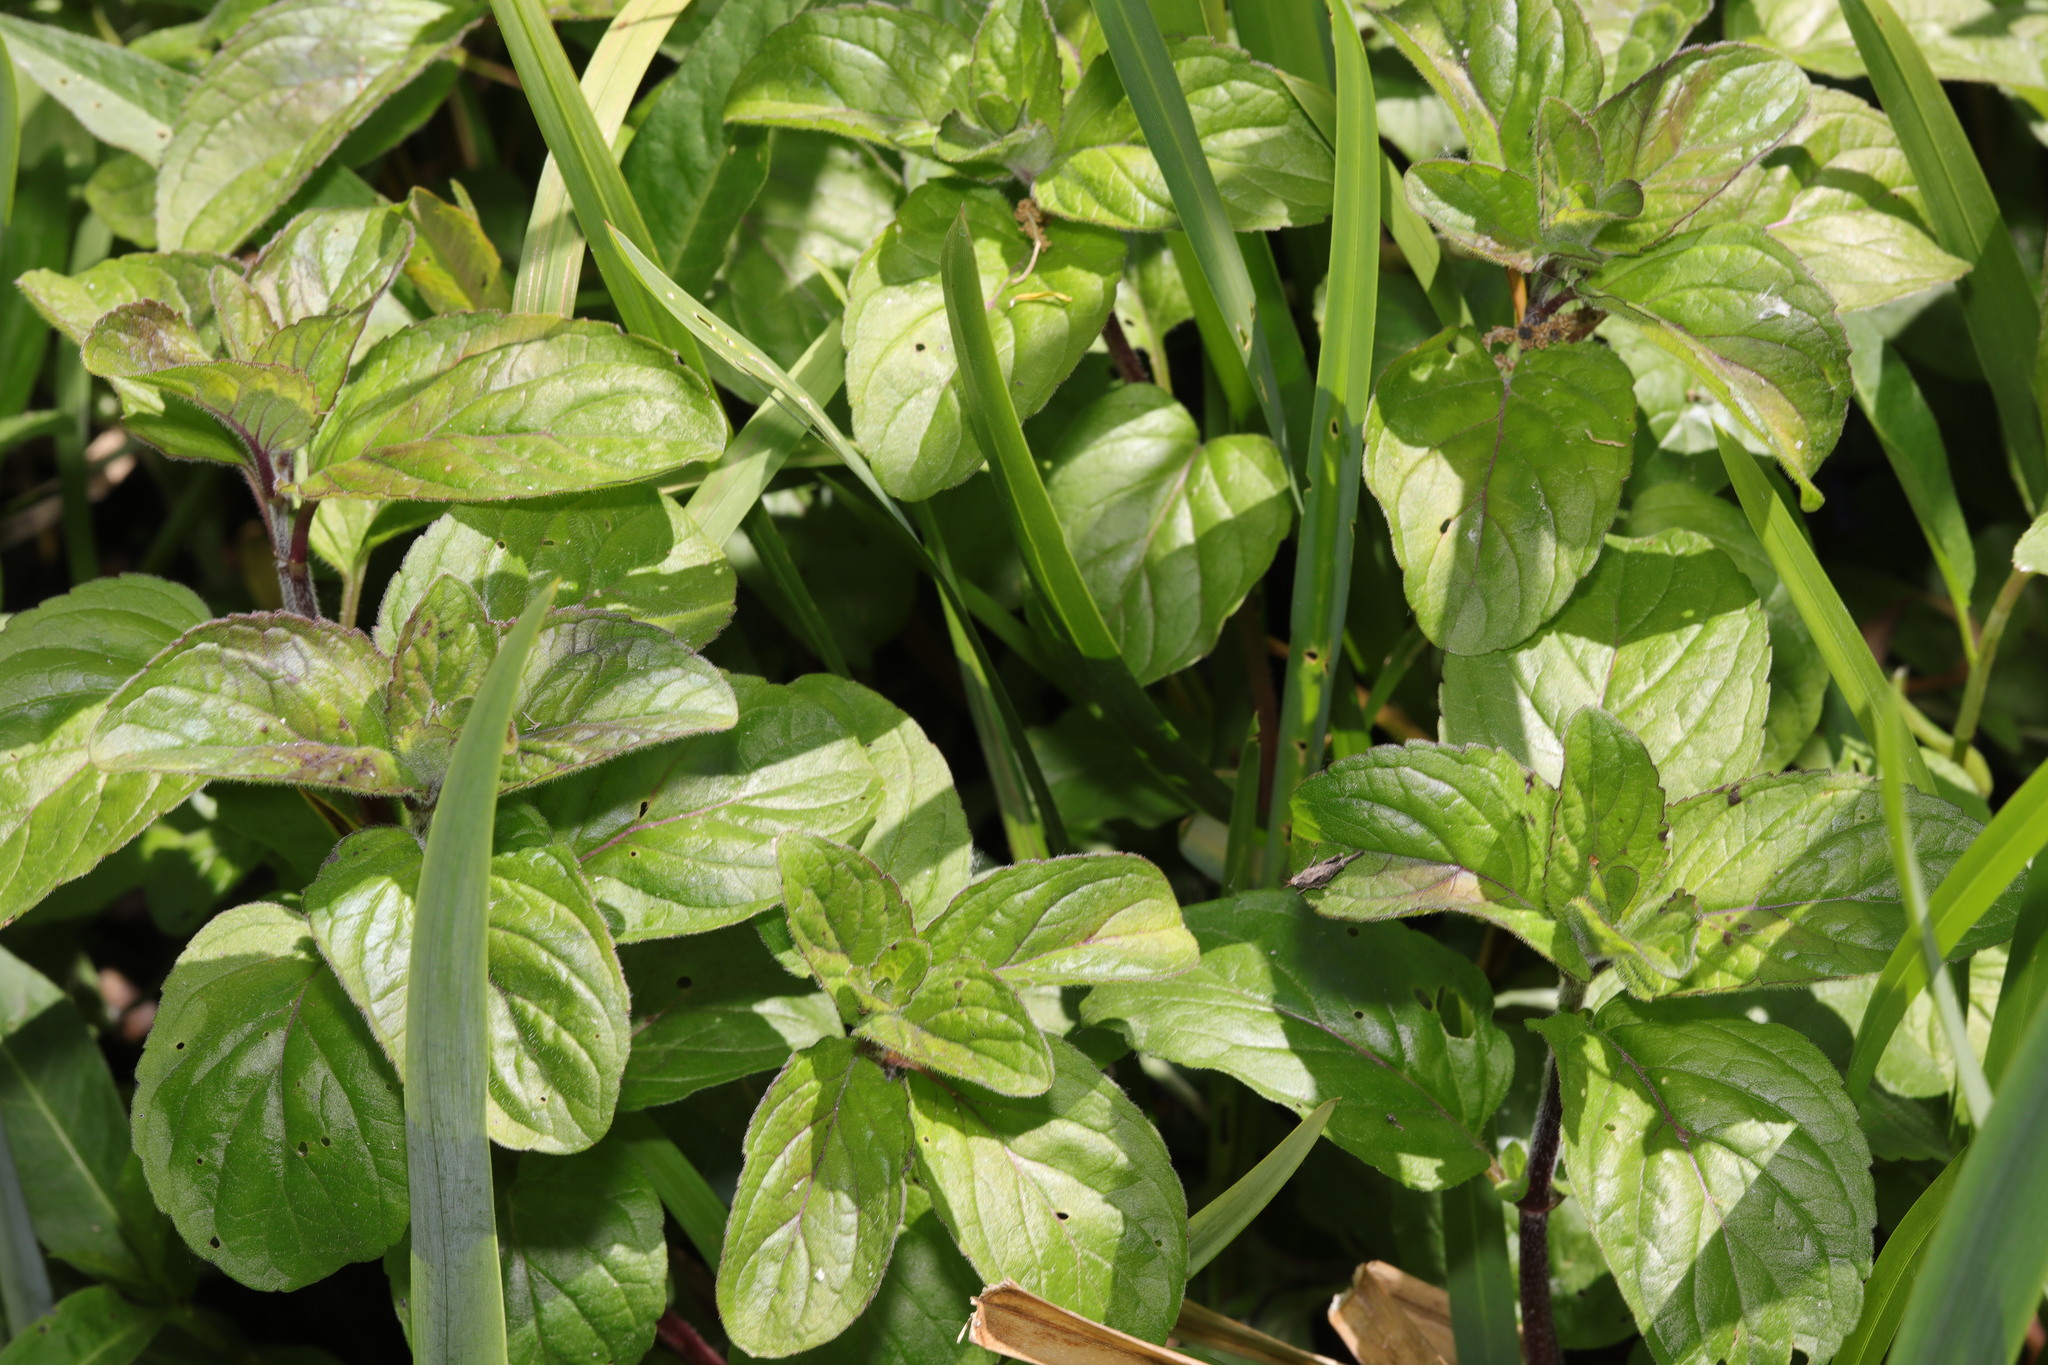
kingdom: Plantae
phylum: Tracheophyta
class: Magnoliopsida
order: Lamiales
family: Lamiaceae
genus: Mentha
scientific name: Mentha aquatica
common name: Water mint
